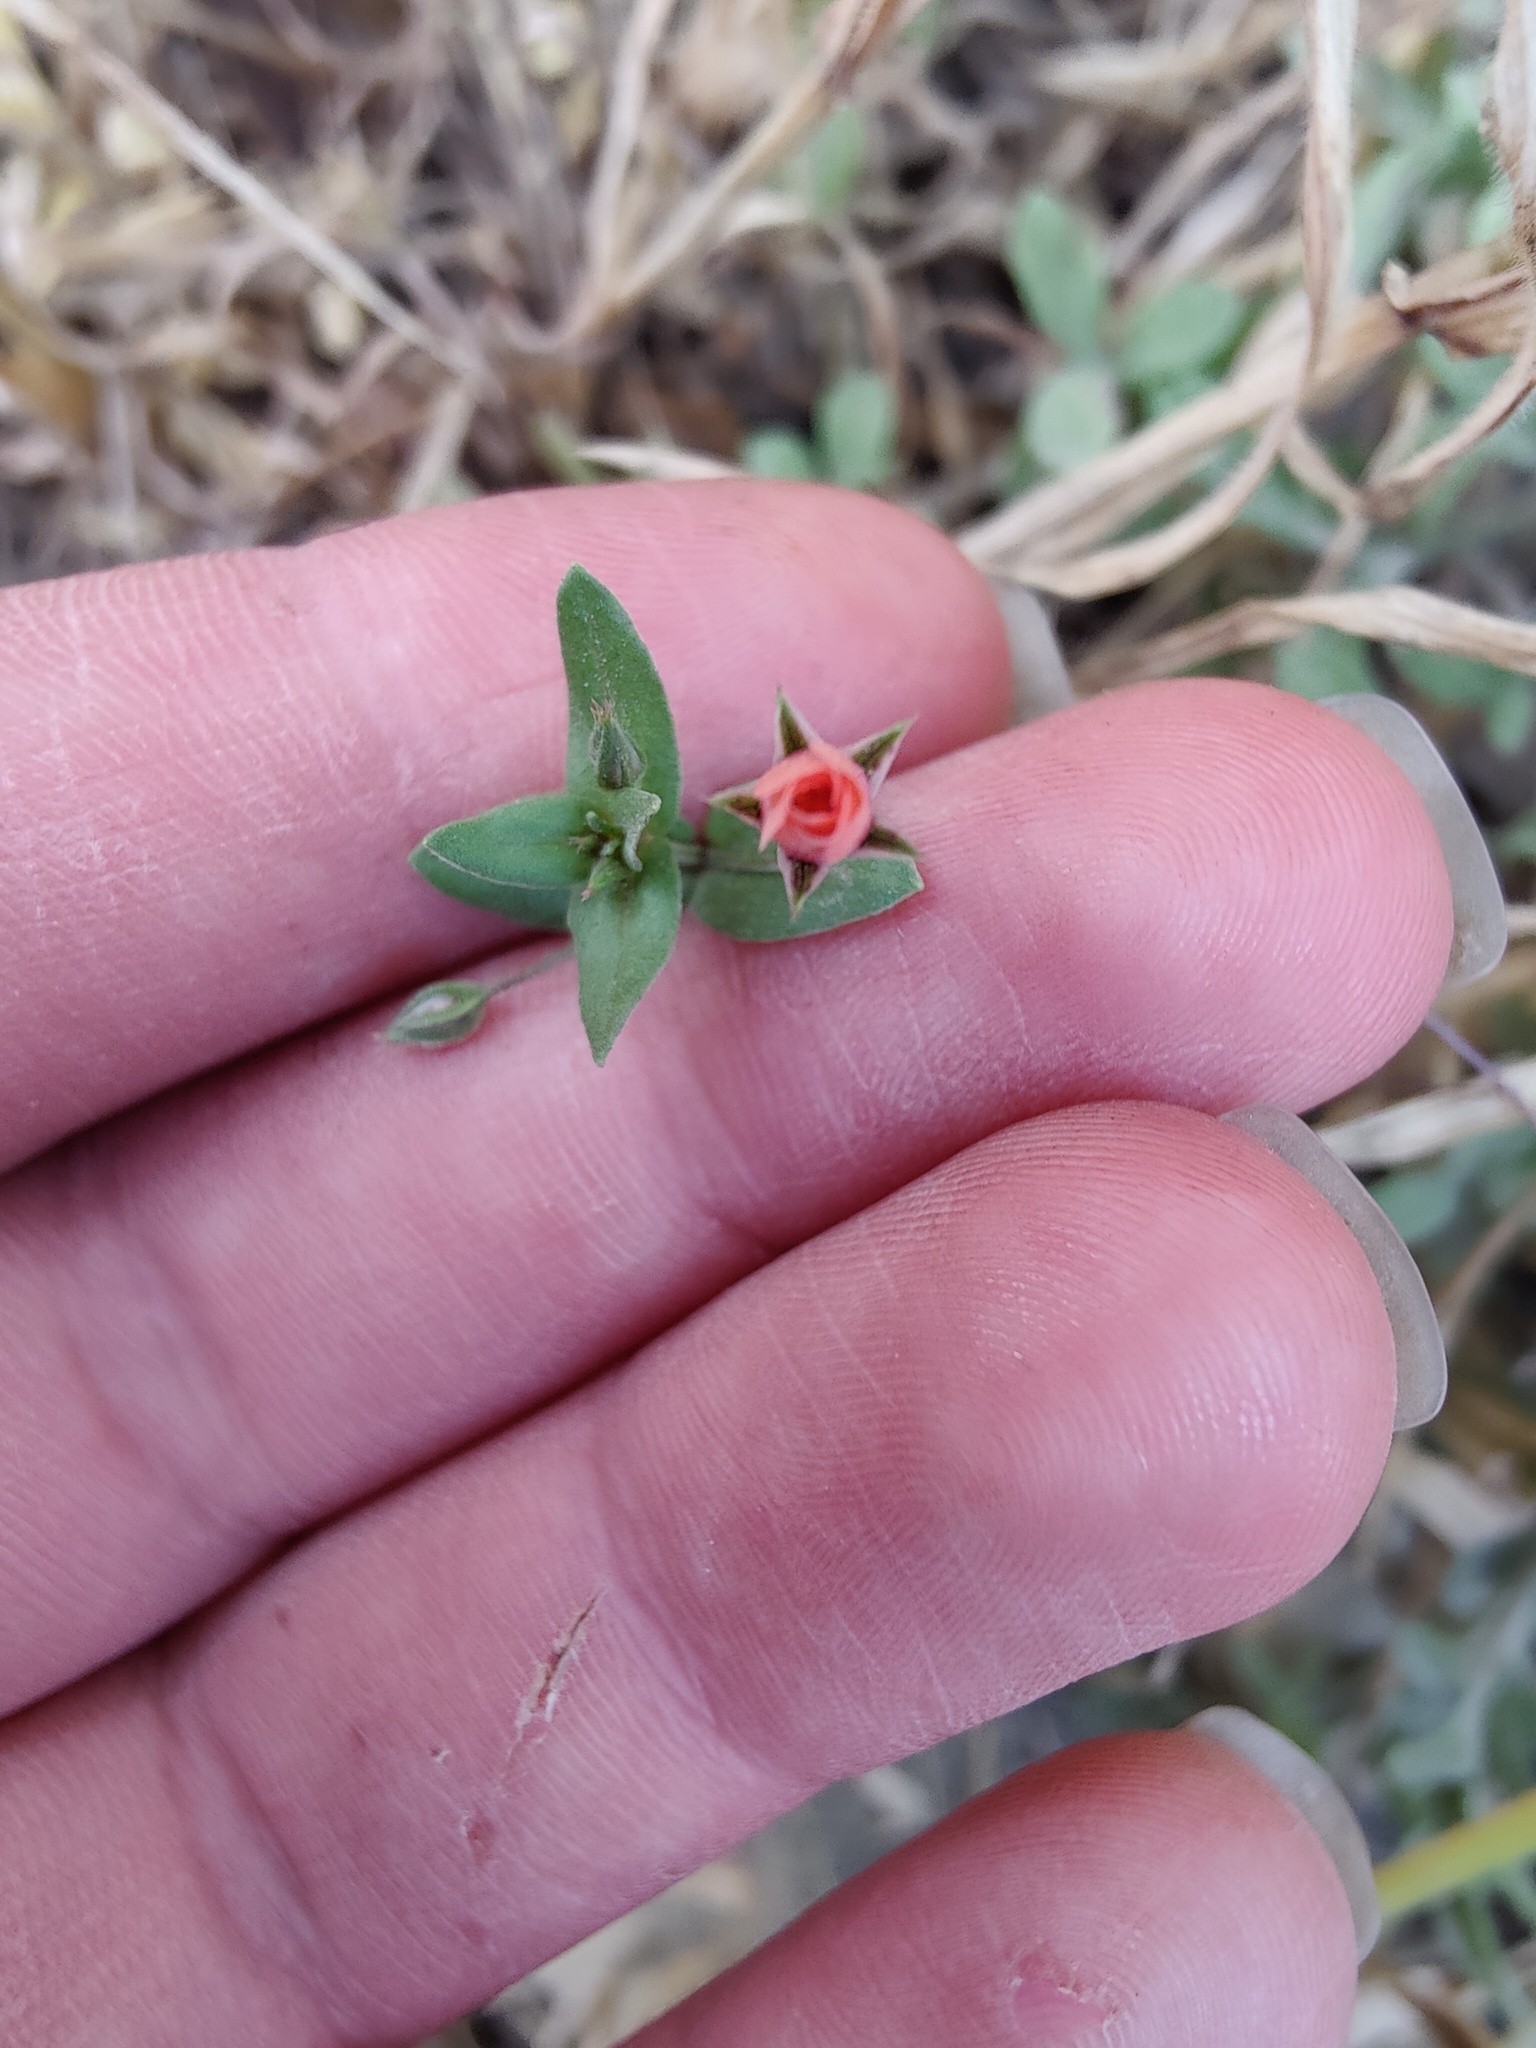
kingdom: Plantae
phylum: Tracheophyta
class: Magnoliopsida
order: Ericales
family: Primulaceae
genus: Lysimachia
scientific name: Lysimachia arvensis
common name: Scarlet pimpernel
